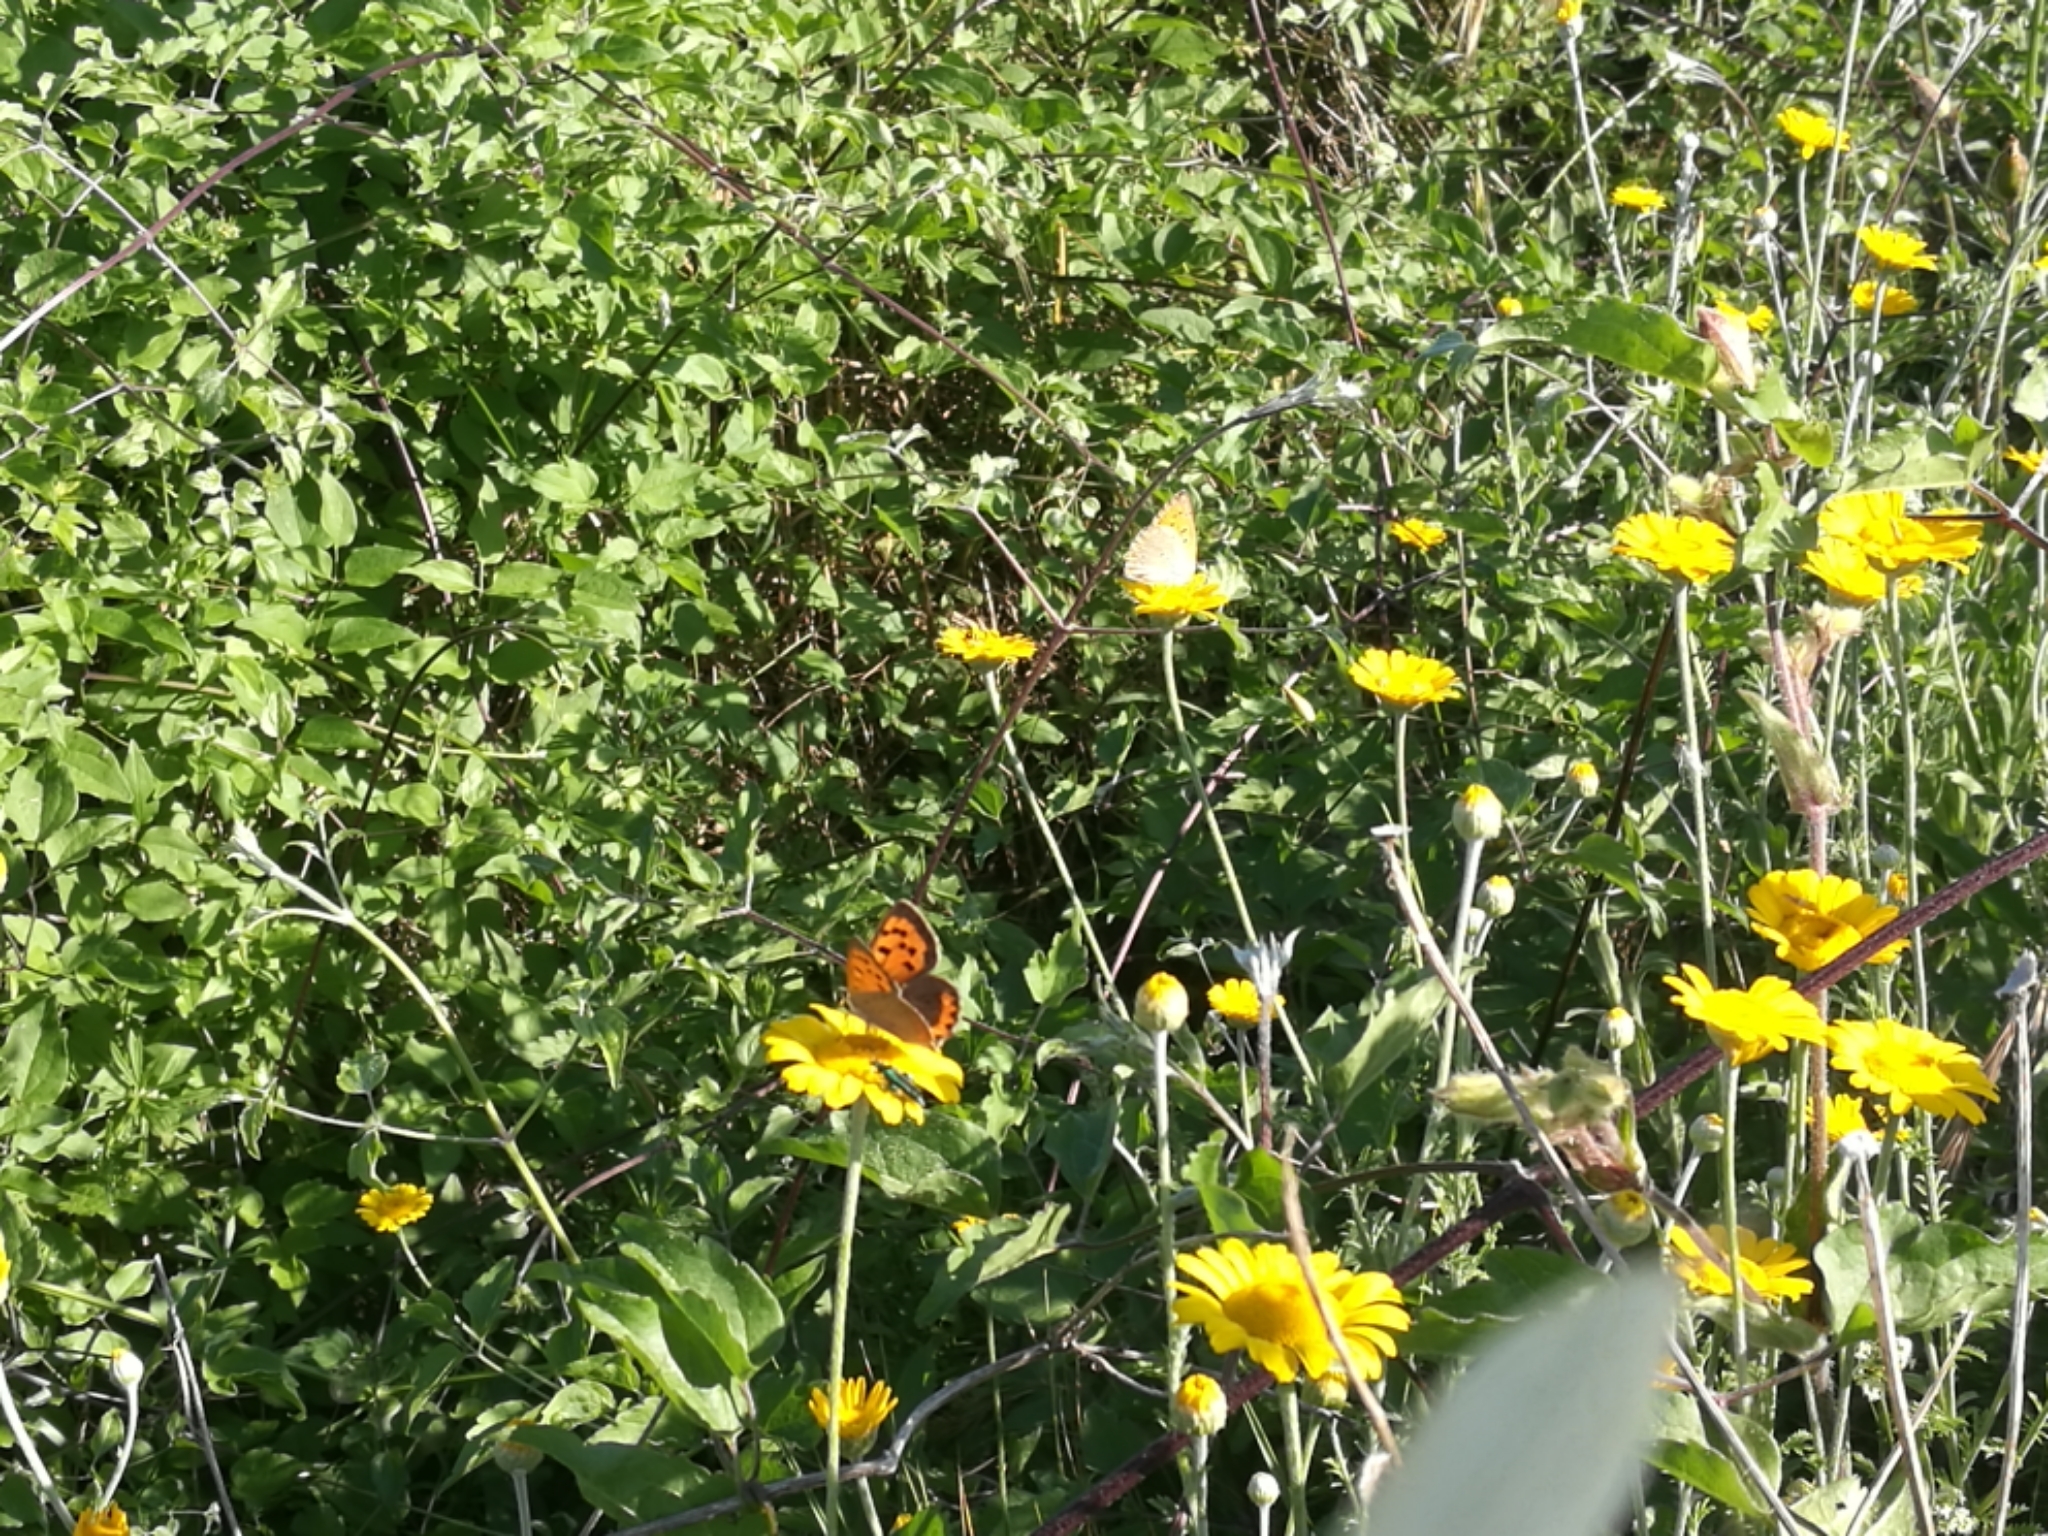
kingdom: Animalia
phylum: Arthropoda
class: Insecta
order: Lepidoptera
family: Lycaenidae
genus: Lycaena
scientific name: Lycaena phlaeas
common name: Small copper
